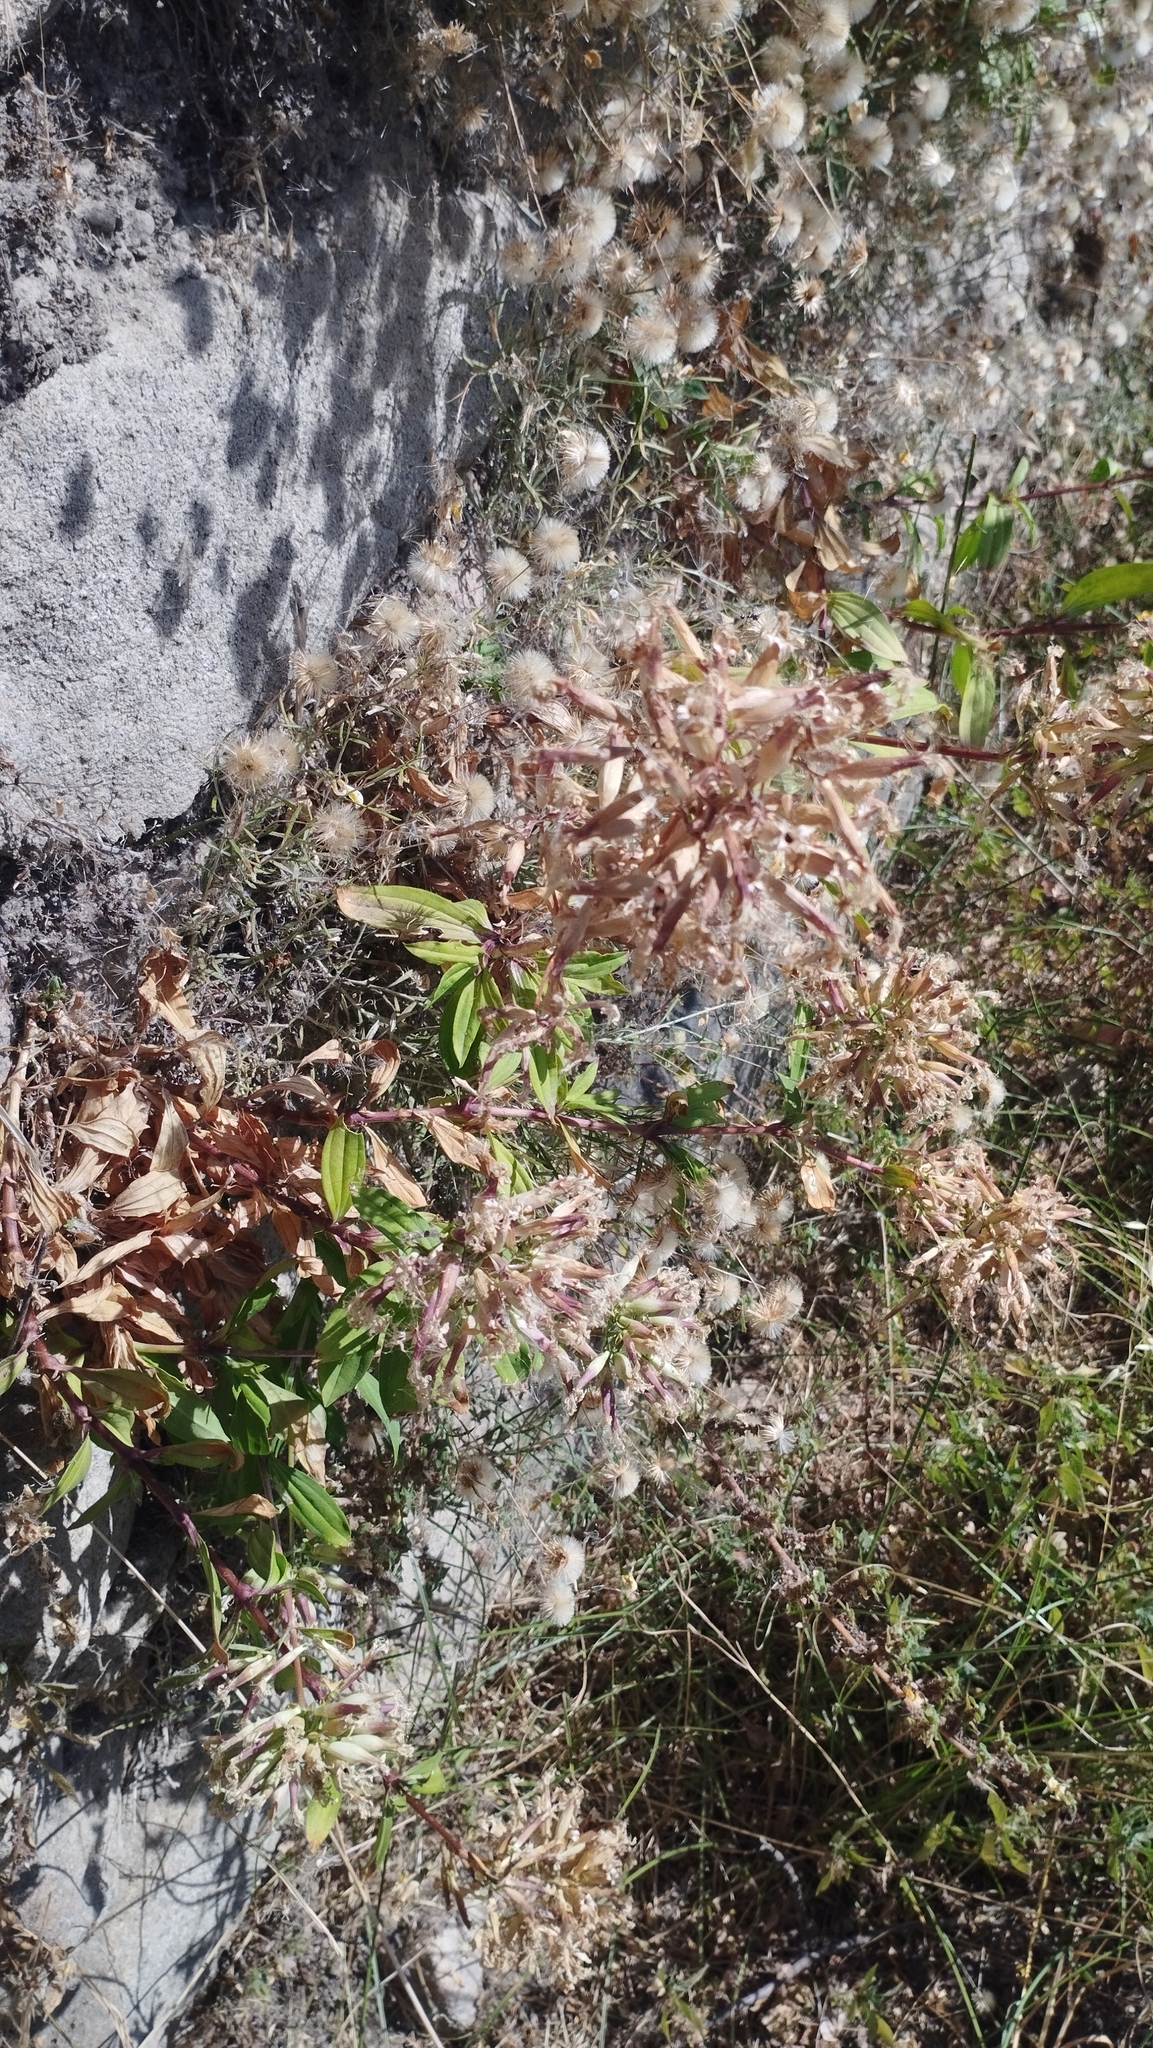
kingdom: Plantae
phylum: Tracheophyta
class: Magnoliopsida
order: Caryophyllales
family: Caryophyllaceae
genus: Saponaria
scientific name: Saponaria officinalis
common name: Soapwort
